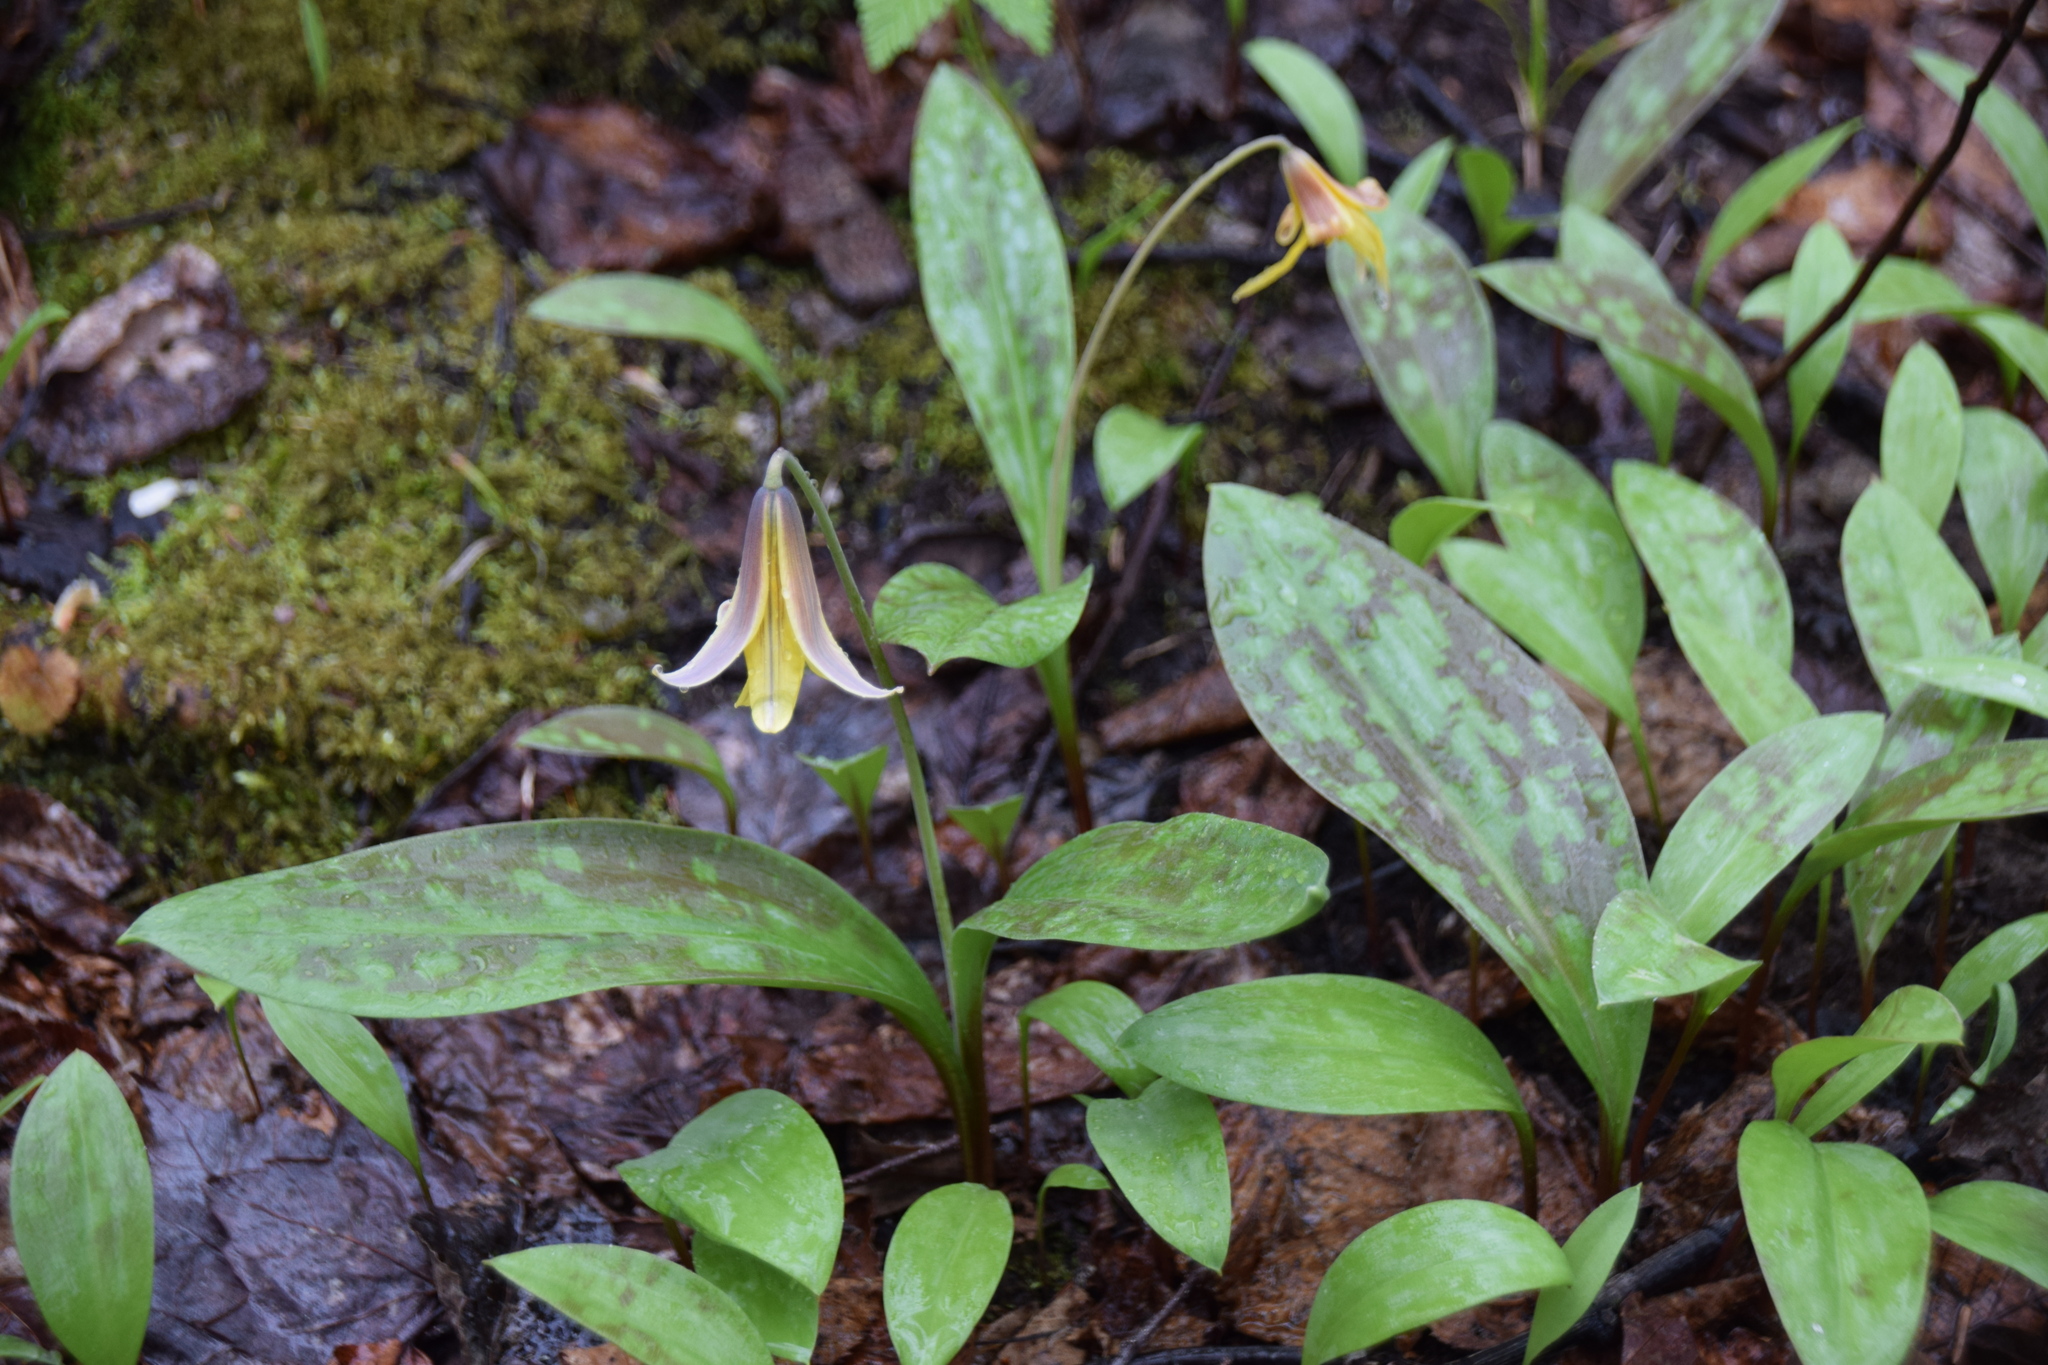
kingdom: Plantae
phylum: Tracheophyta
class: Liliopsida
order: Liliales
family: Liliaceae
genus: Erythronium
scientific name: Erythronium americanum
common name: Yellow adder's-tongue
